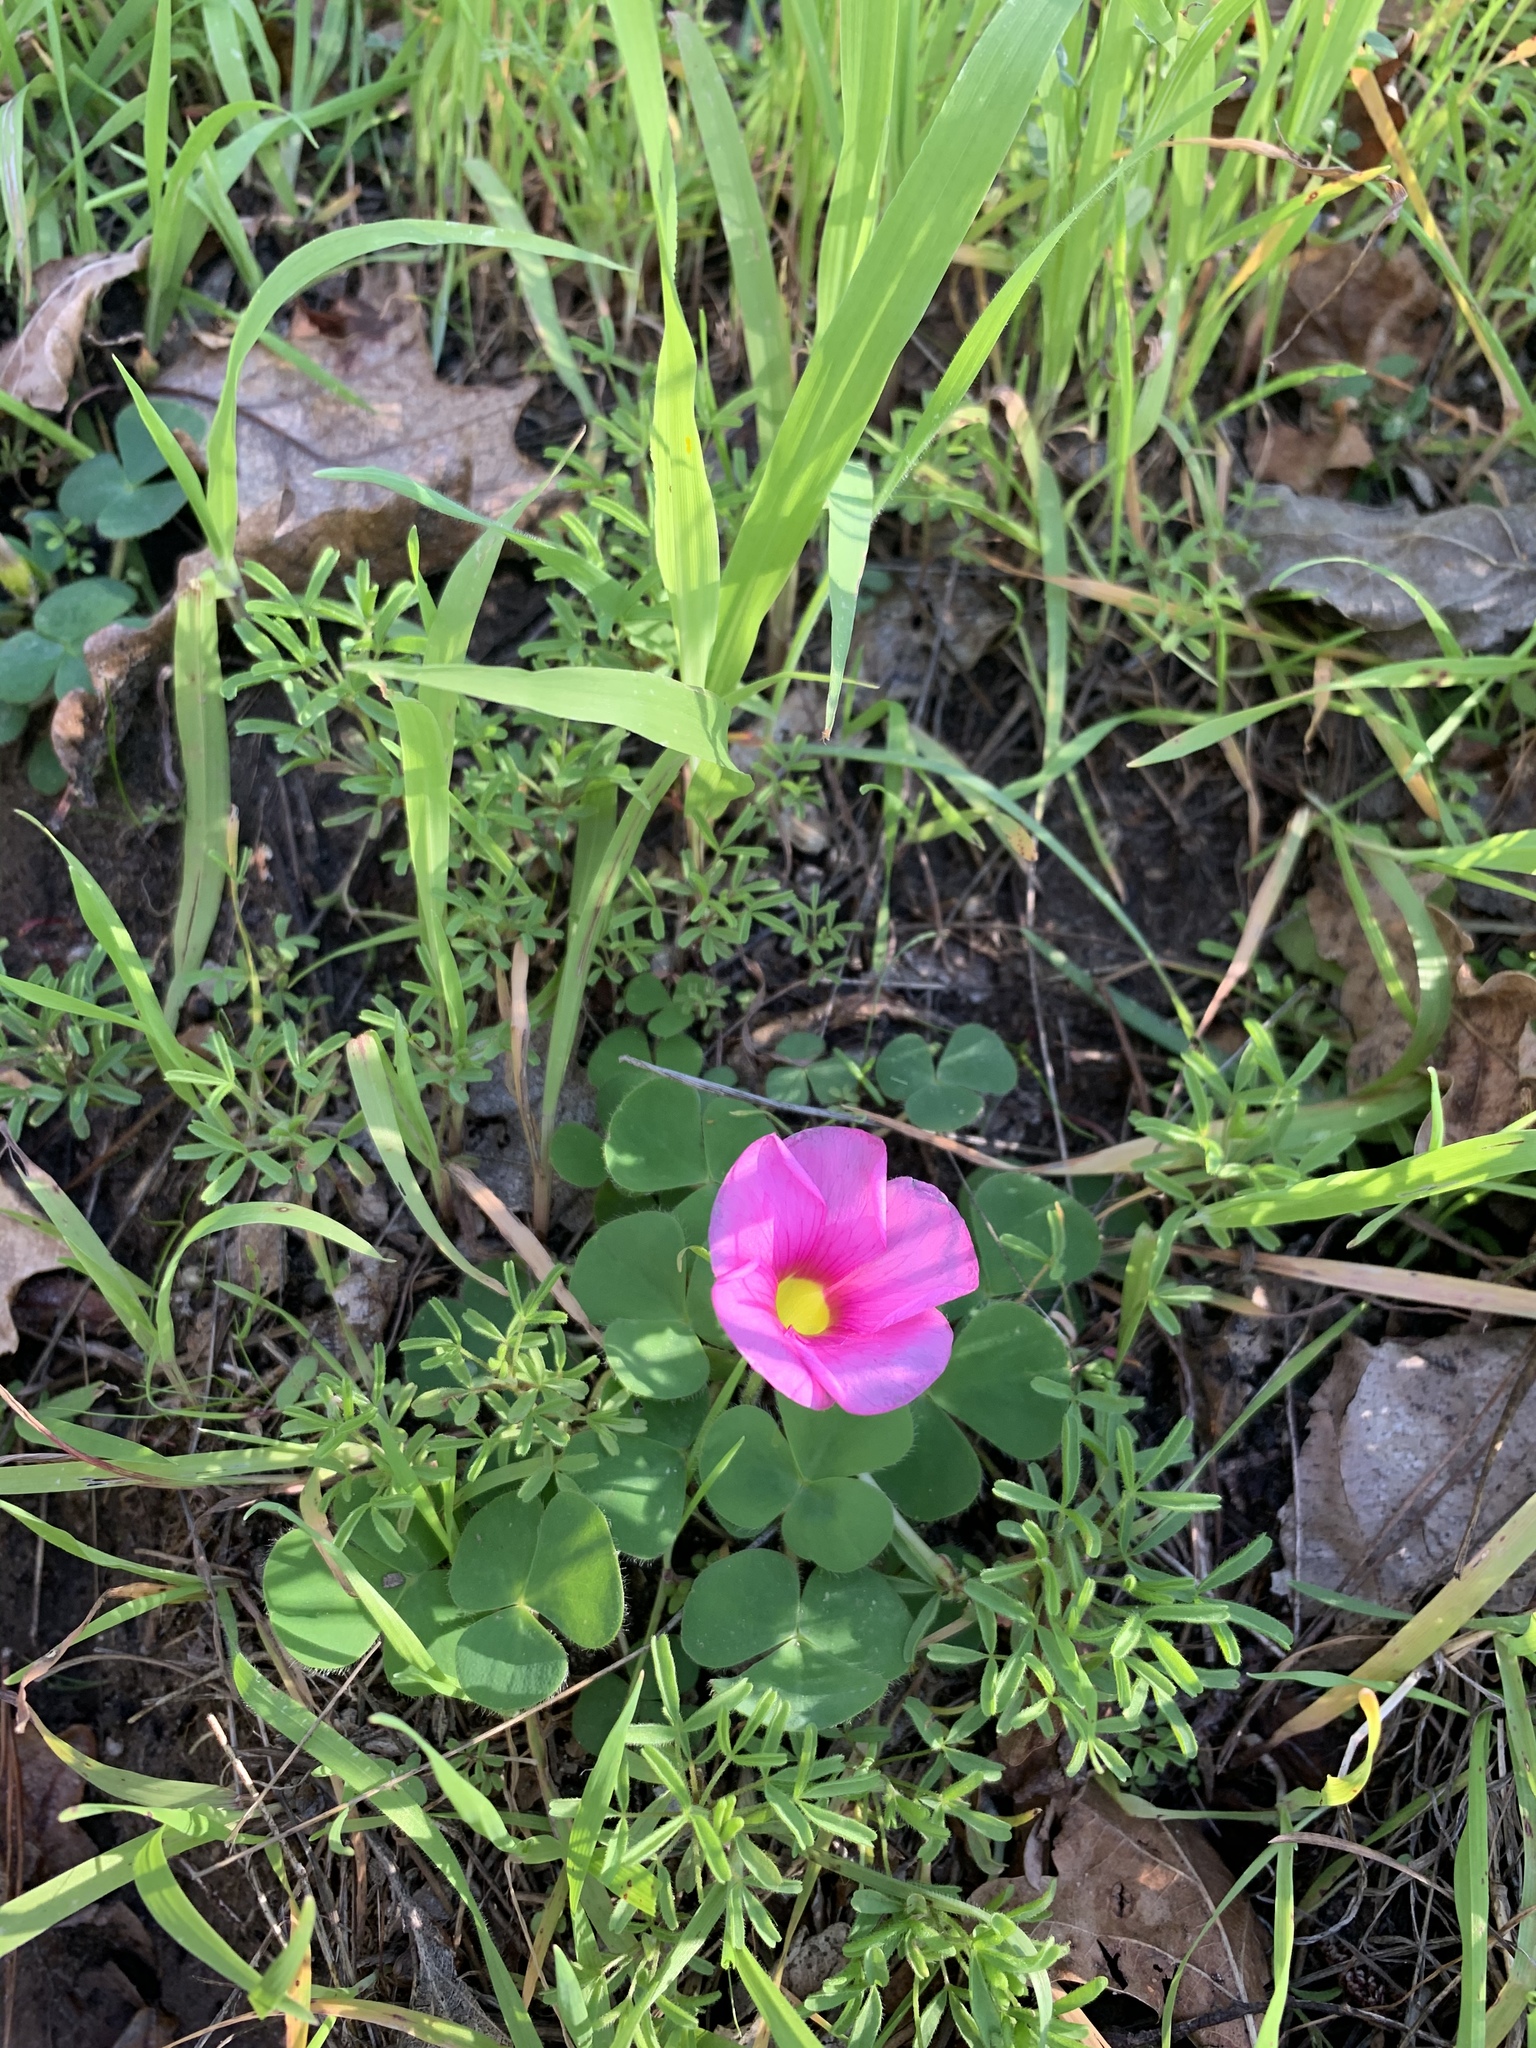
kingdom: Plantae
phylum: Tracheophyta
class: Magnoliopsida
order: Oxalidales
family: Oxalidaceae
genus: Oxalis
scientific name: Oxalis purpurea
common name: Purple woodsorrel
